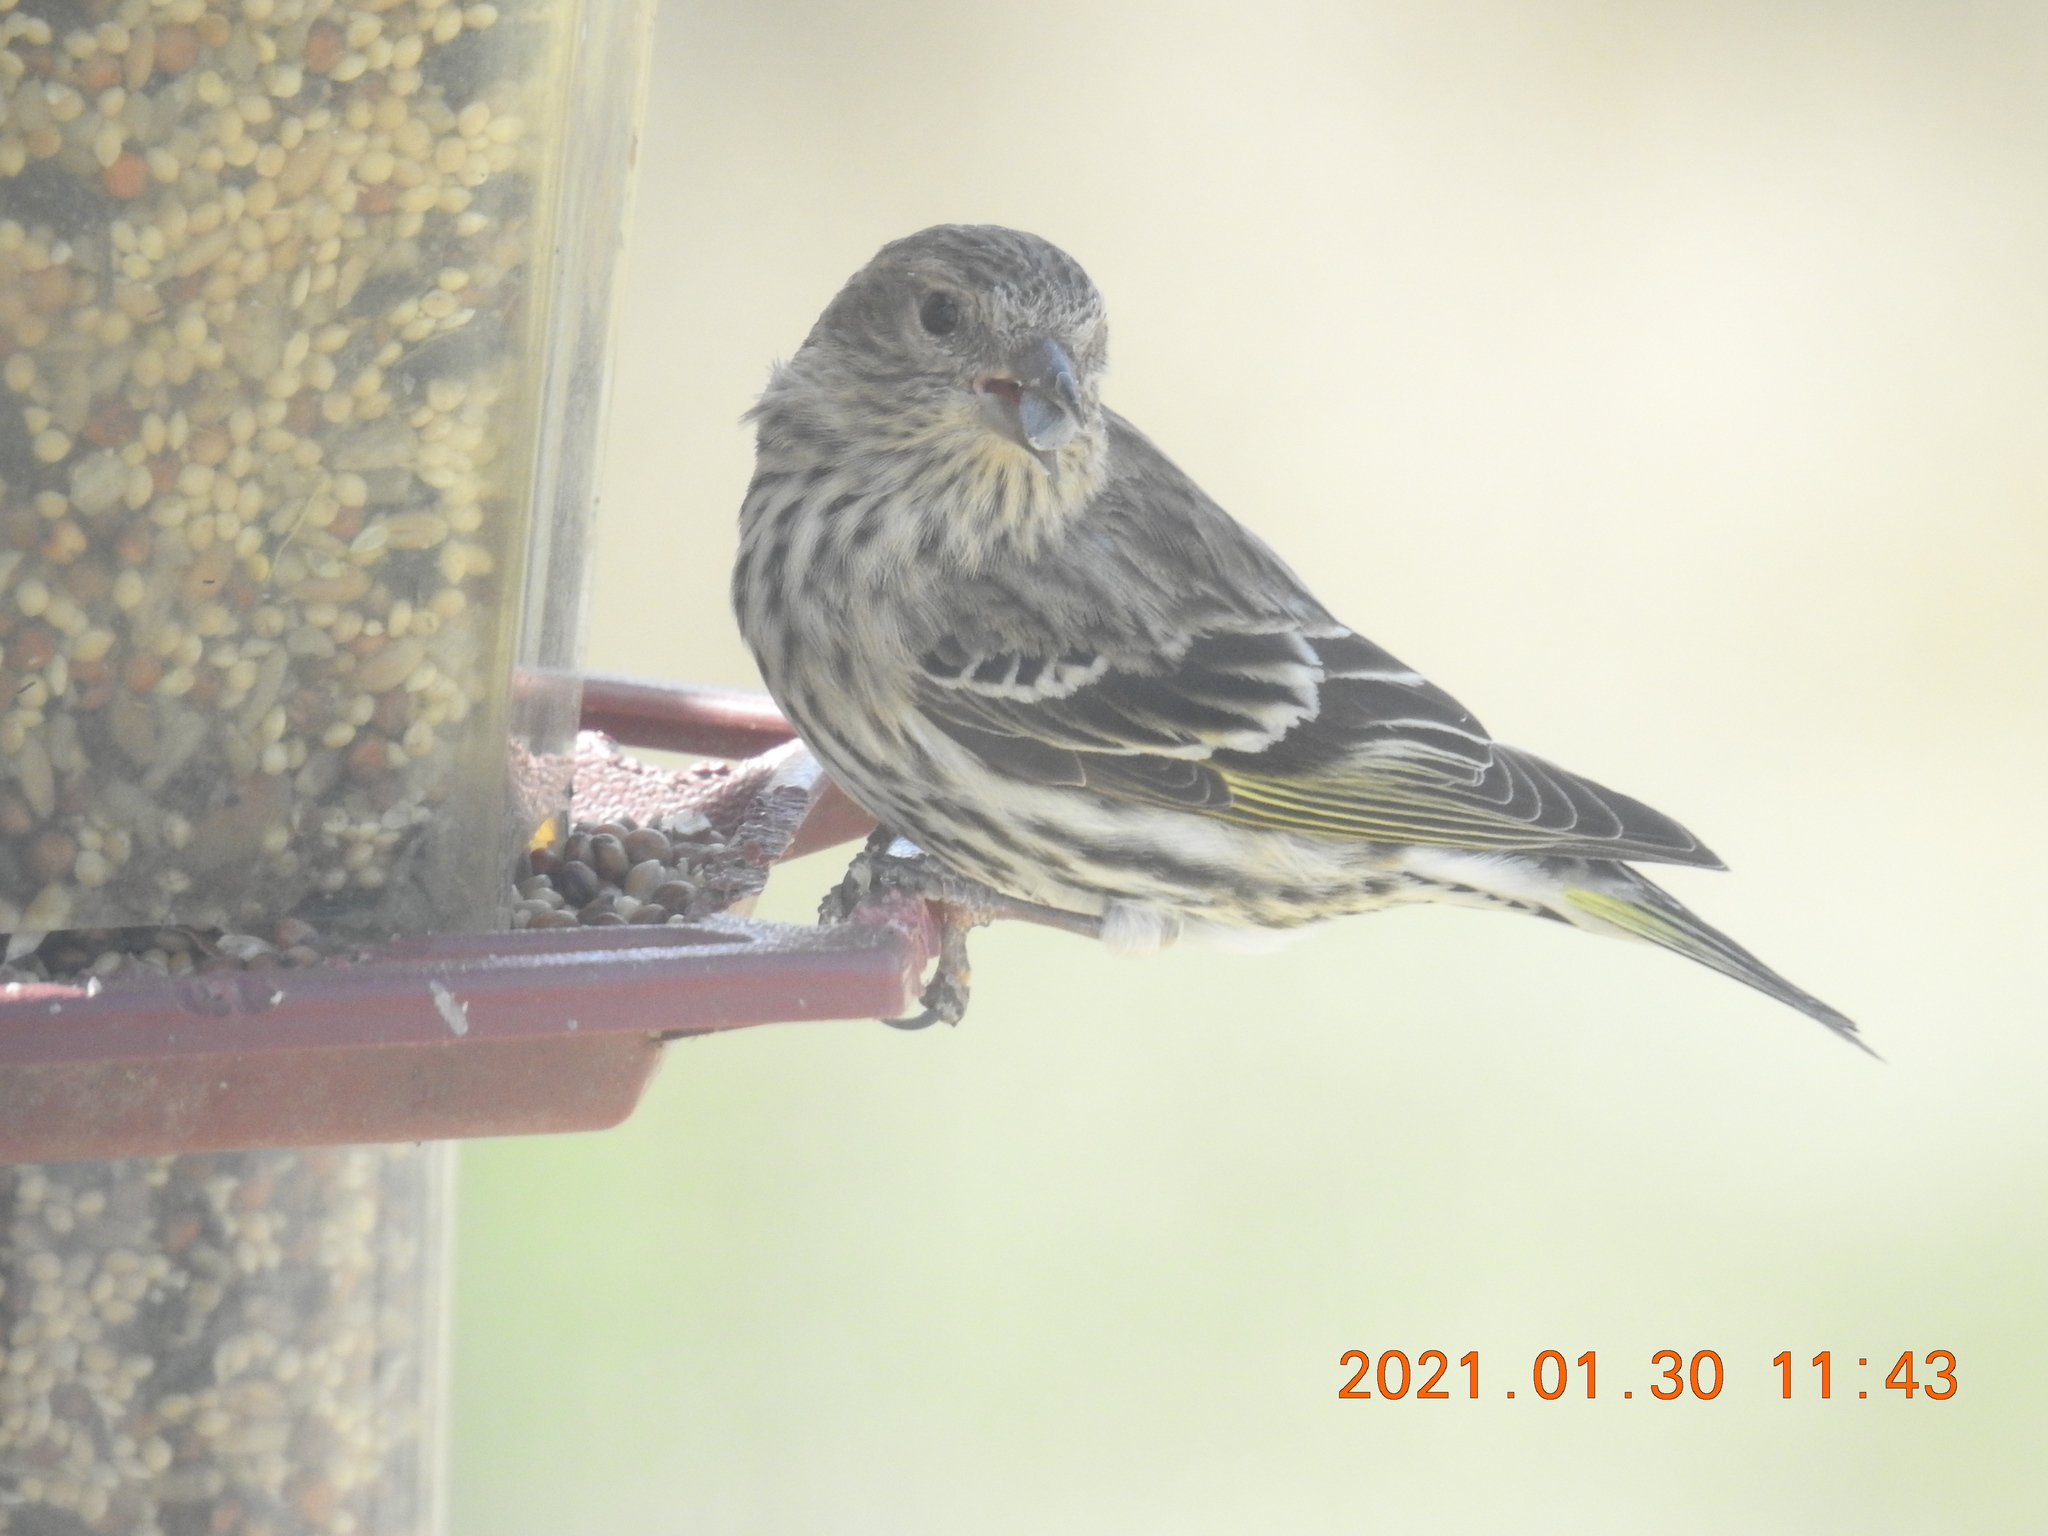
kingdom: Animalia
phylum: Chordata
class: Aves
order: Passeriformes
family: Fringillidae
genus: Spinus
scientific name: Spinus pinus
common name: Pine siskin
